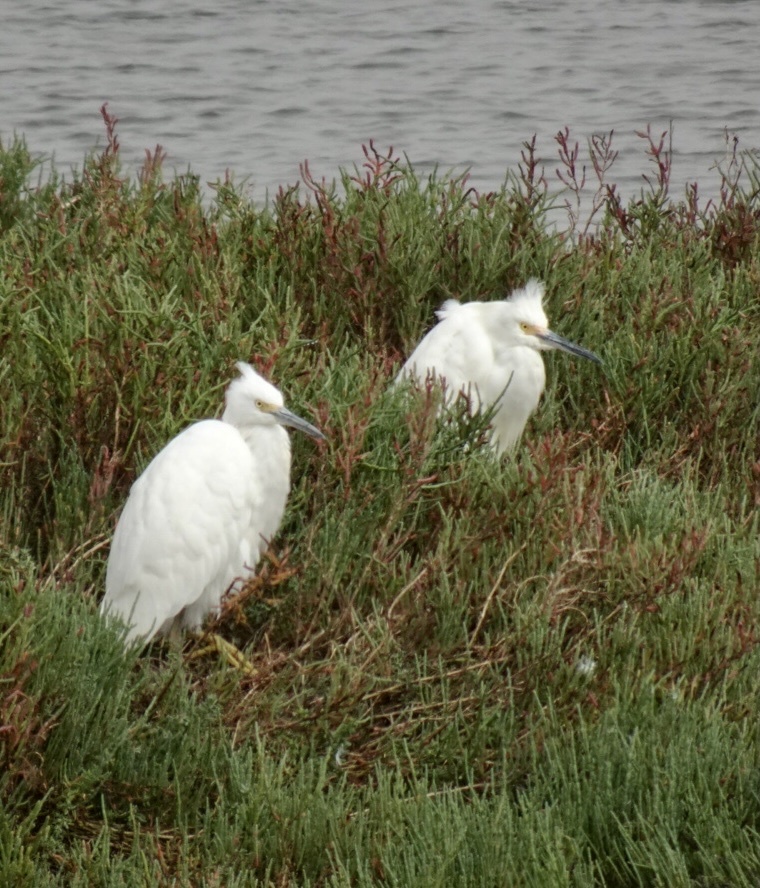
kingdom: Animalia
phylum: Chordata
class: Aves
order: Pelecaniformes
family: Ardeidae
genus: Egretta
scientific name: Egretta thula
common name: Snowy egret
